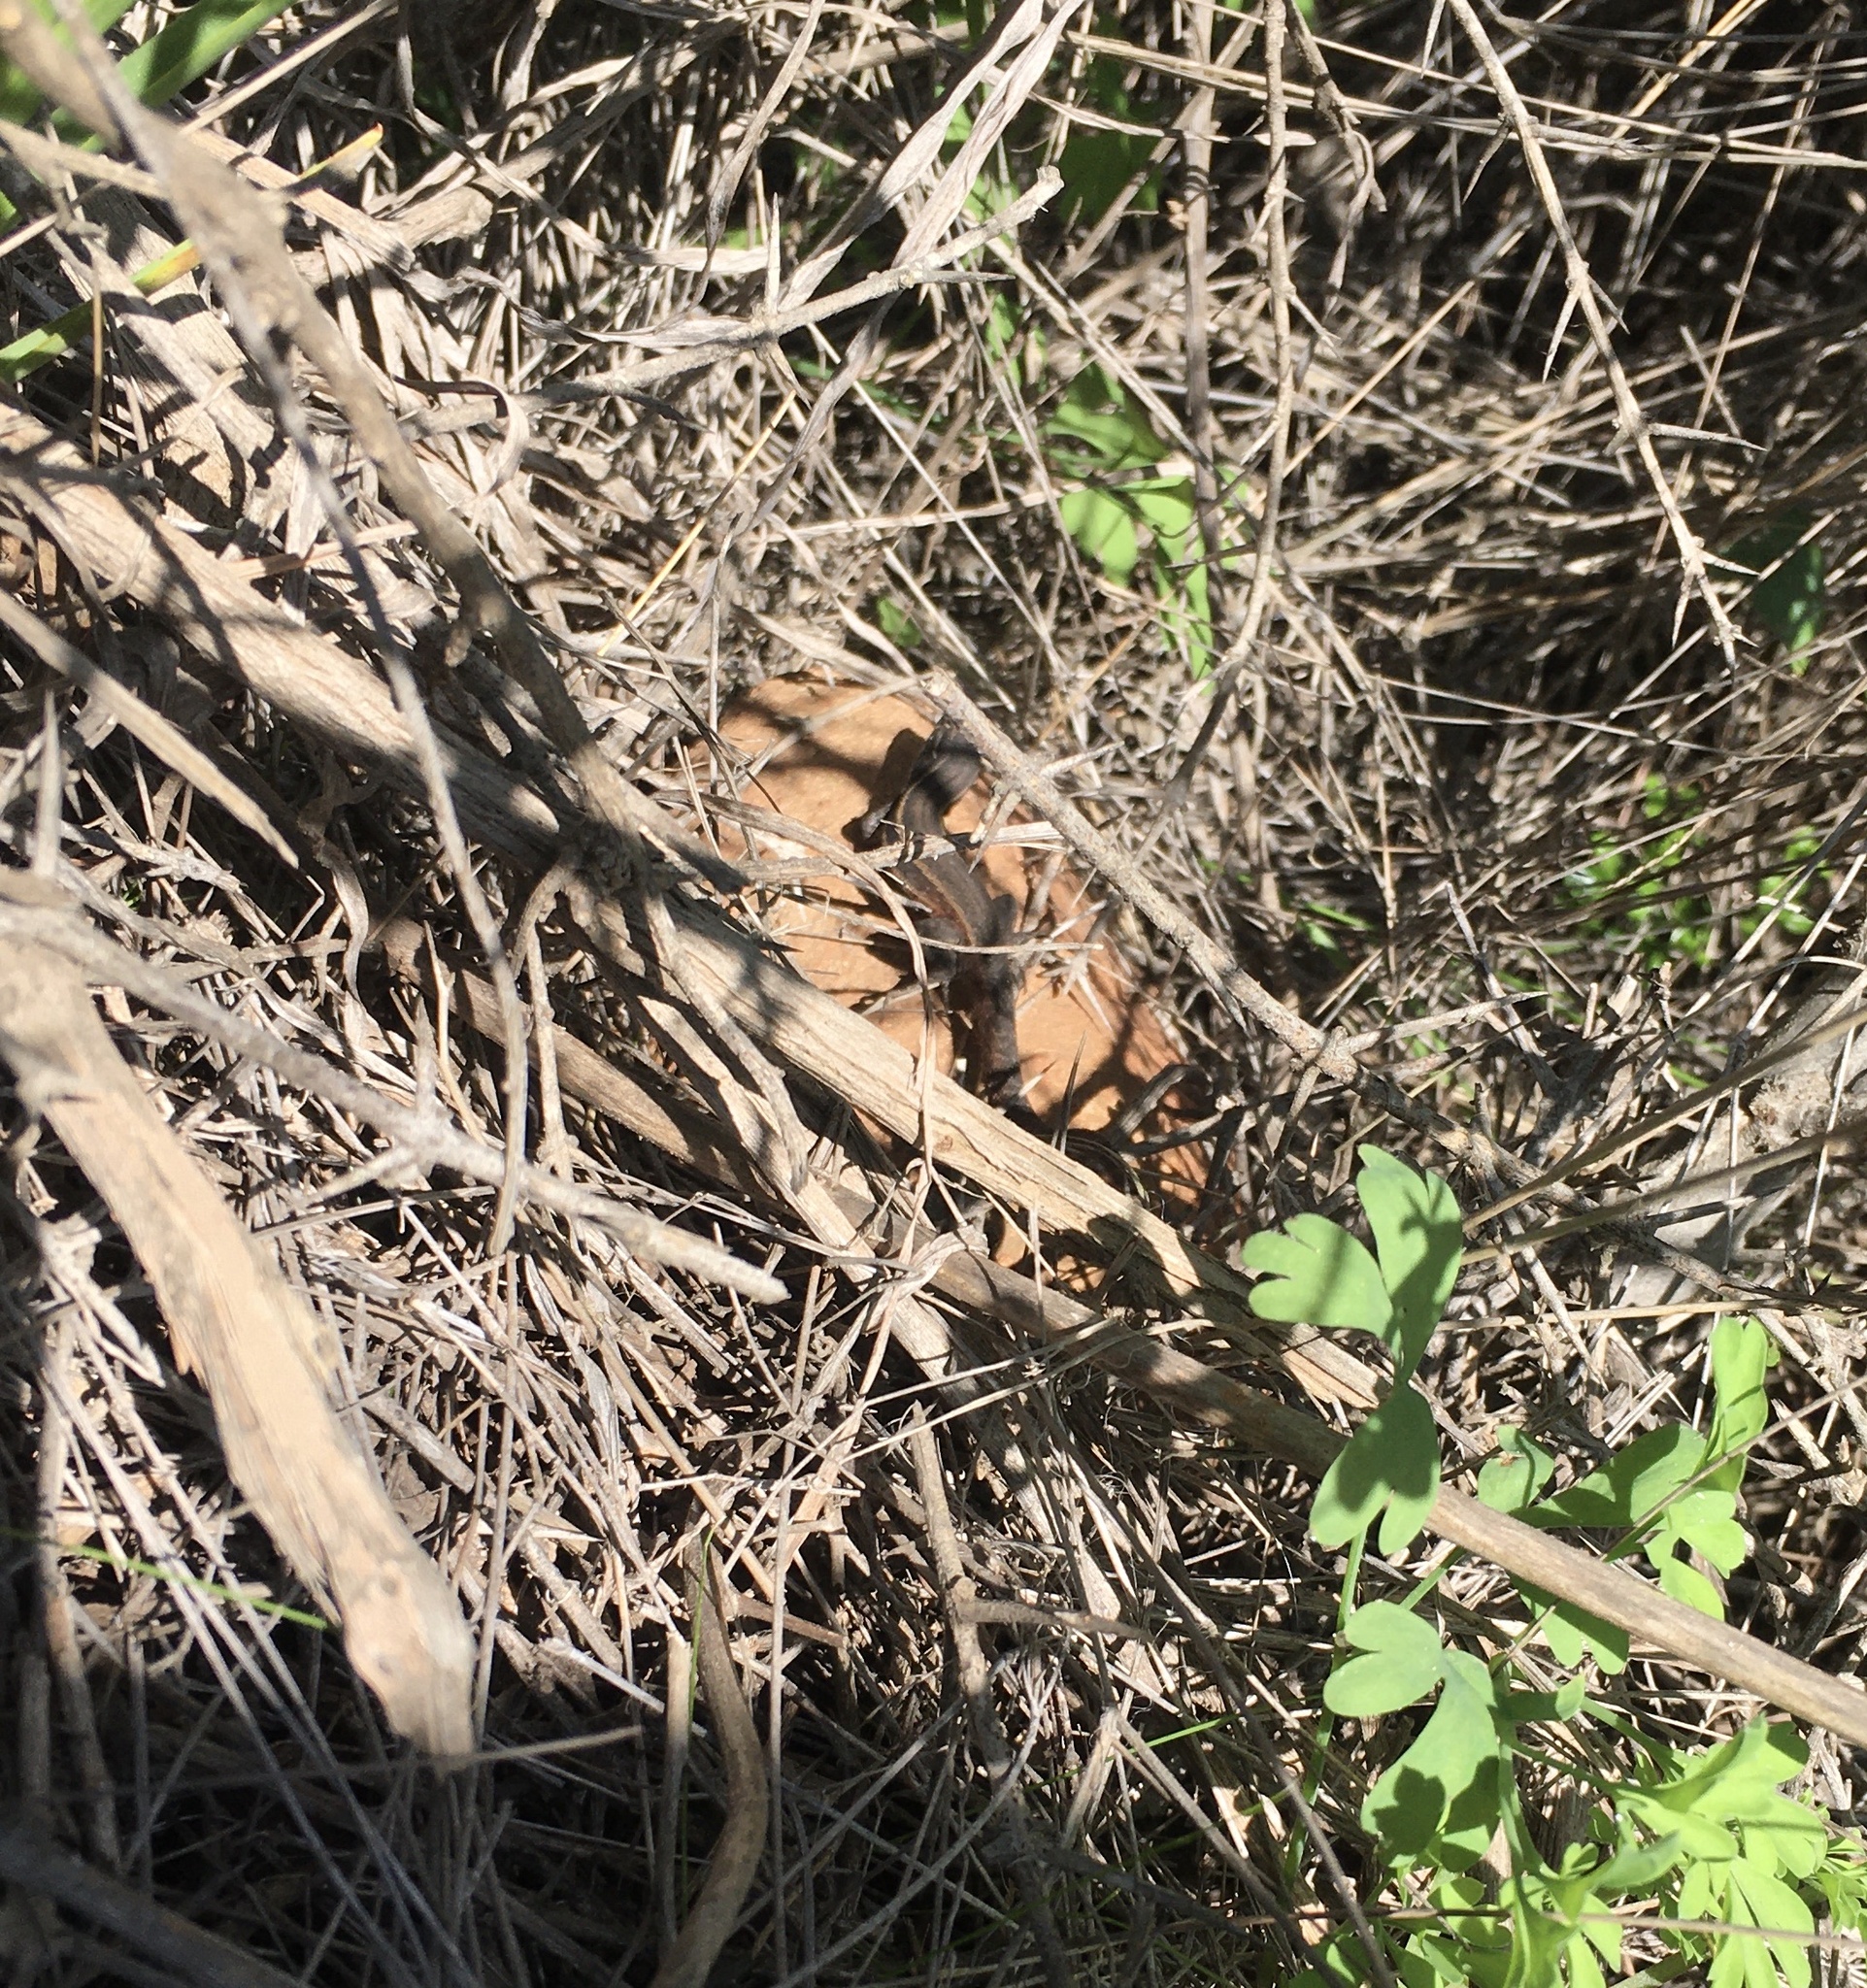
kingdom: Animalia
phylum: Chordata
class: Squamata
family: Liolaemidae
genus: Liolaemus
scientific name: Liolaemus fuscus
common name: Brown tree iguana
